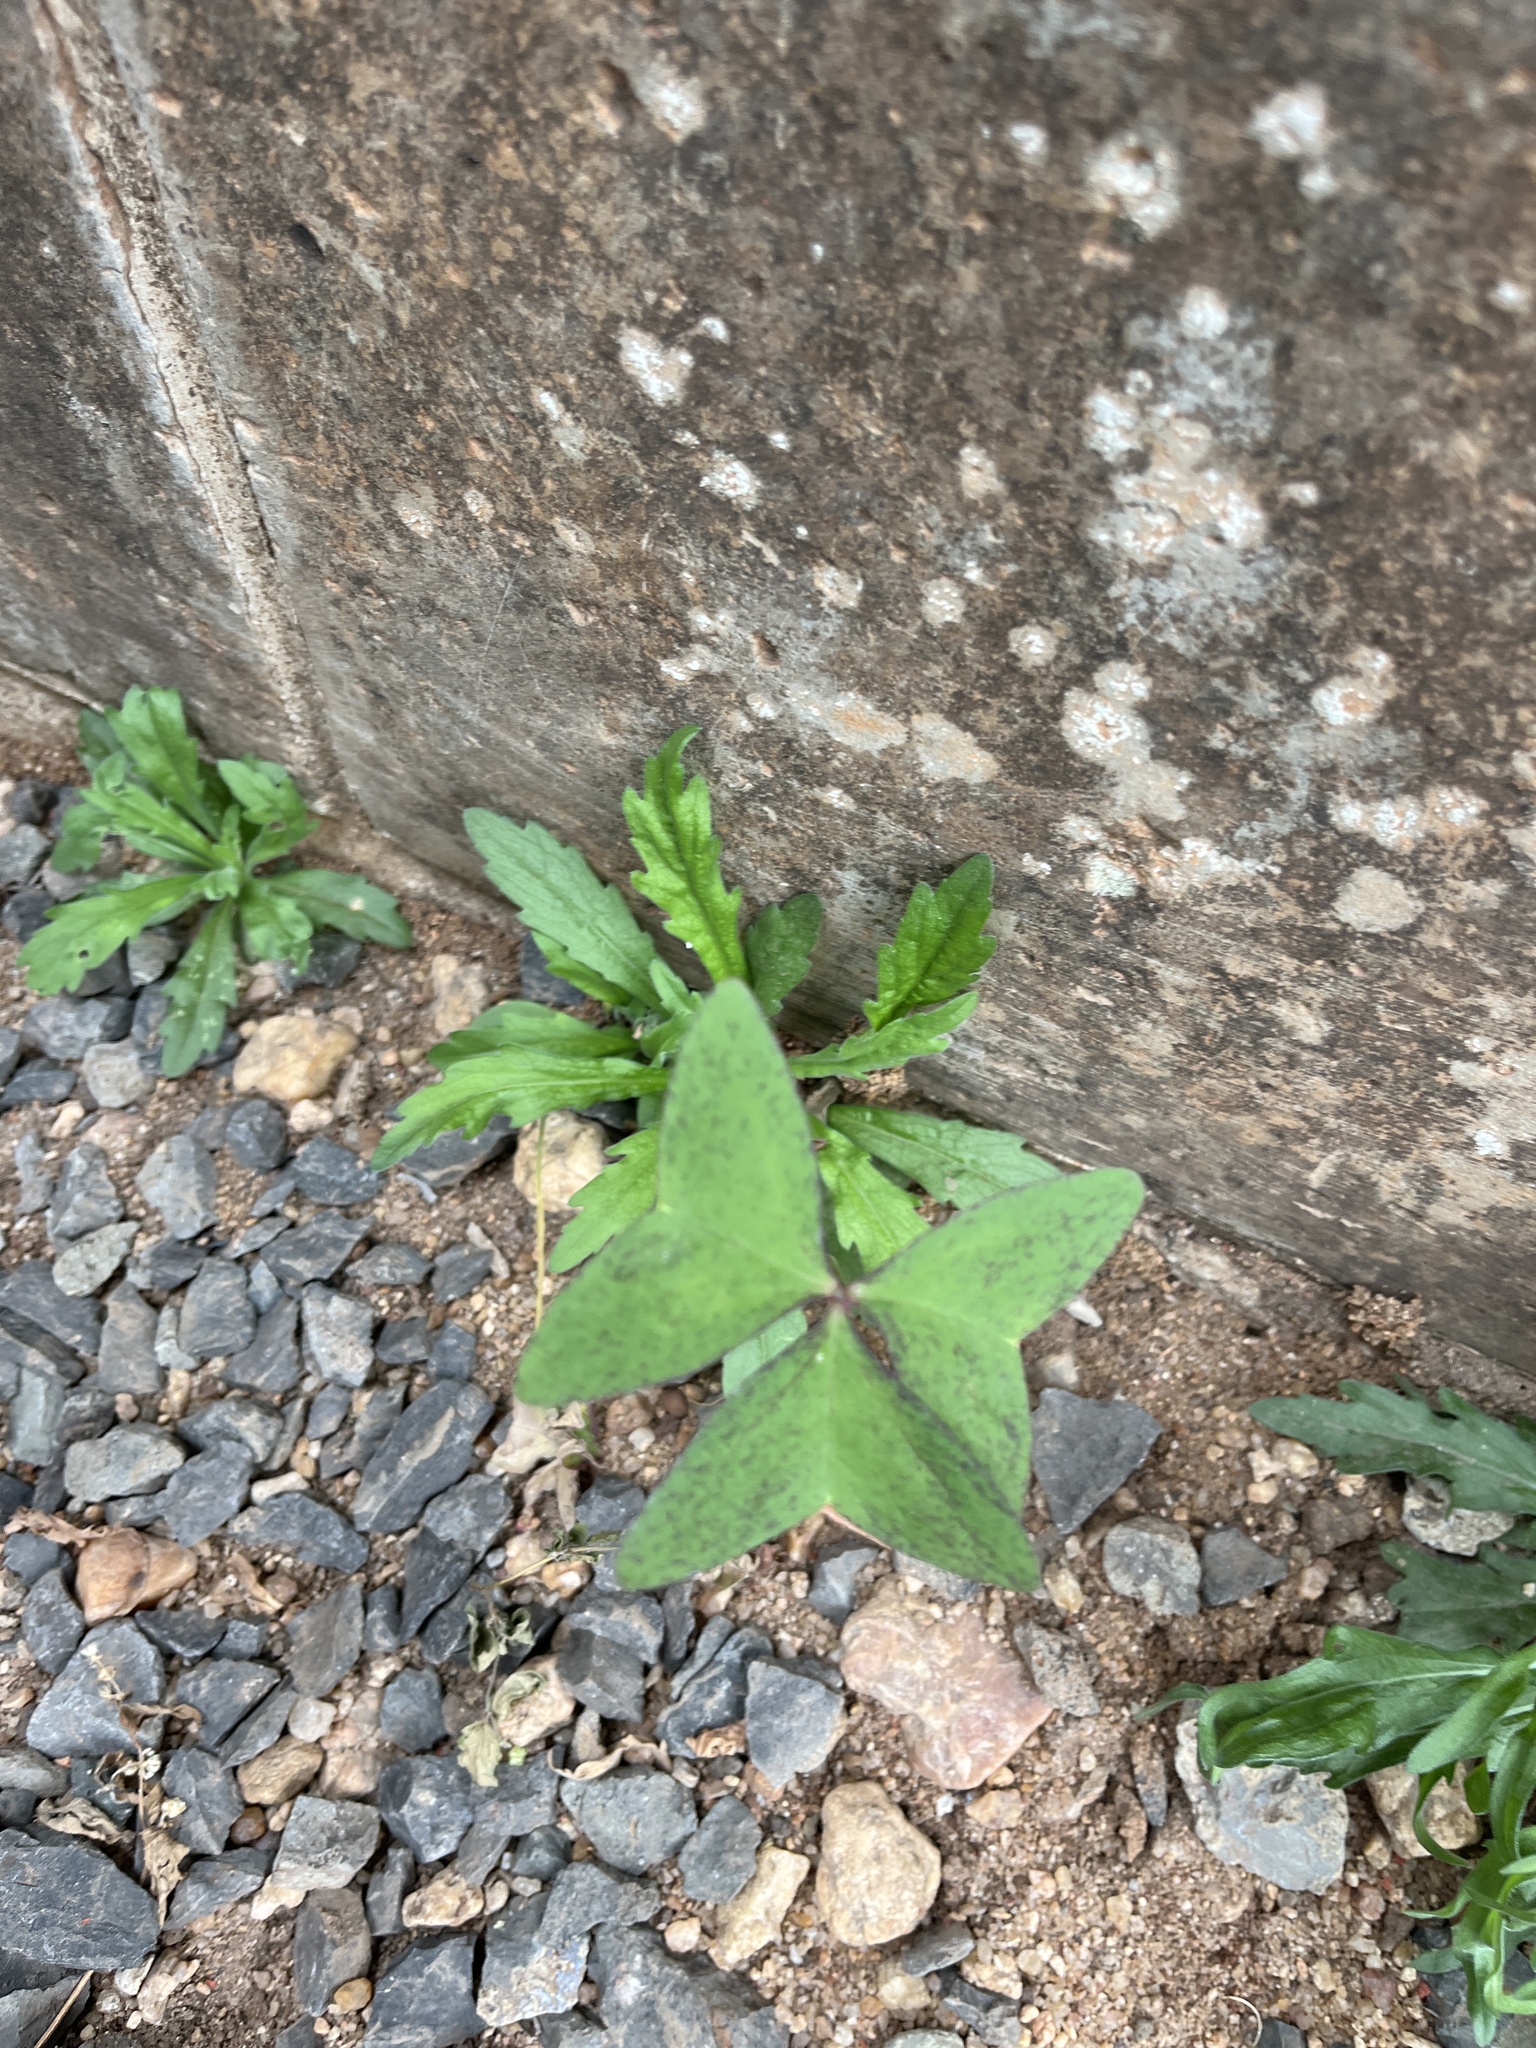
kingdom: Plantae
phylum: Tracheophyta
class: Magnoliopsida
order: Oxalidales
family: Oxalidaceae
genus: Oxalis
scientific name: Oxalis latifolia
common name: Garden pink-sorrel
